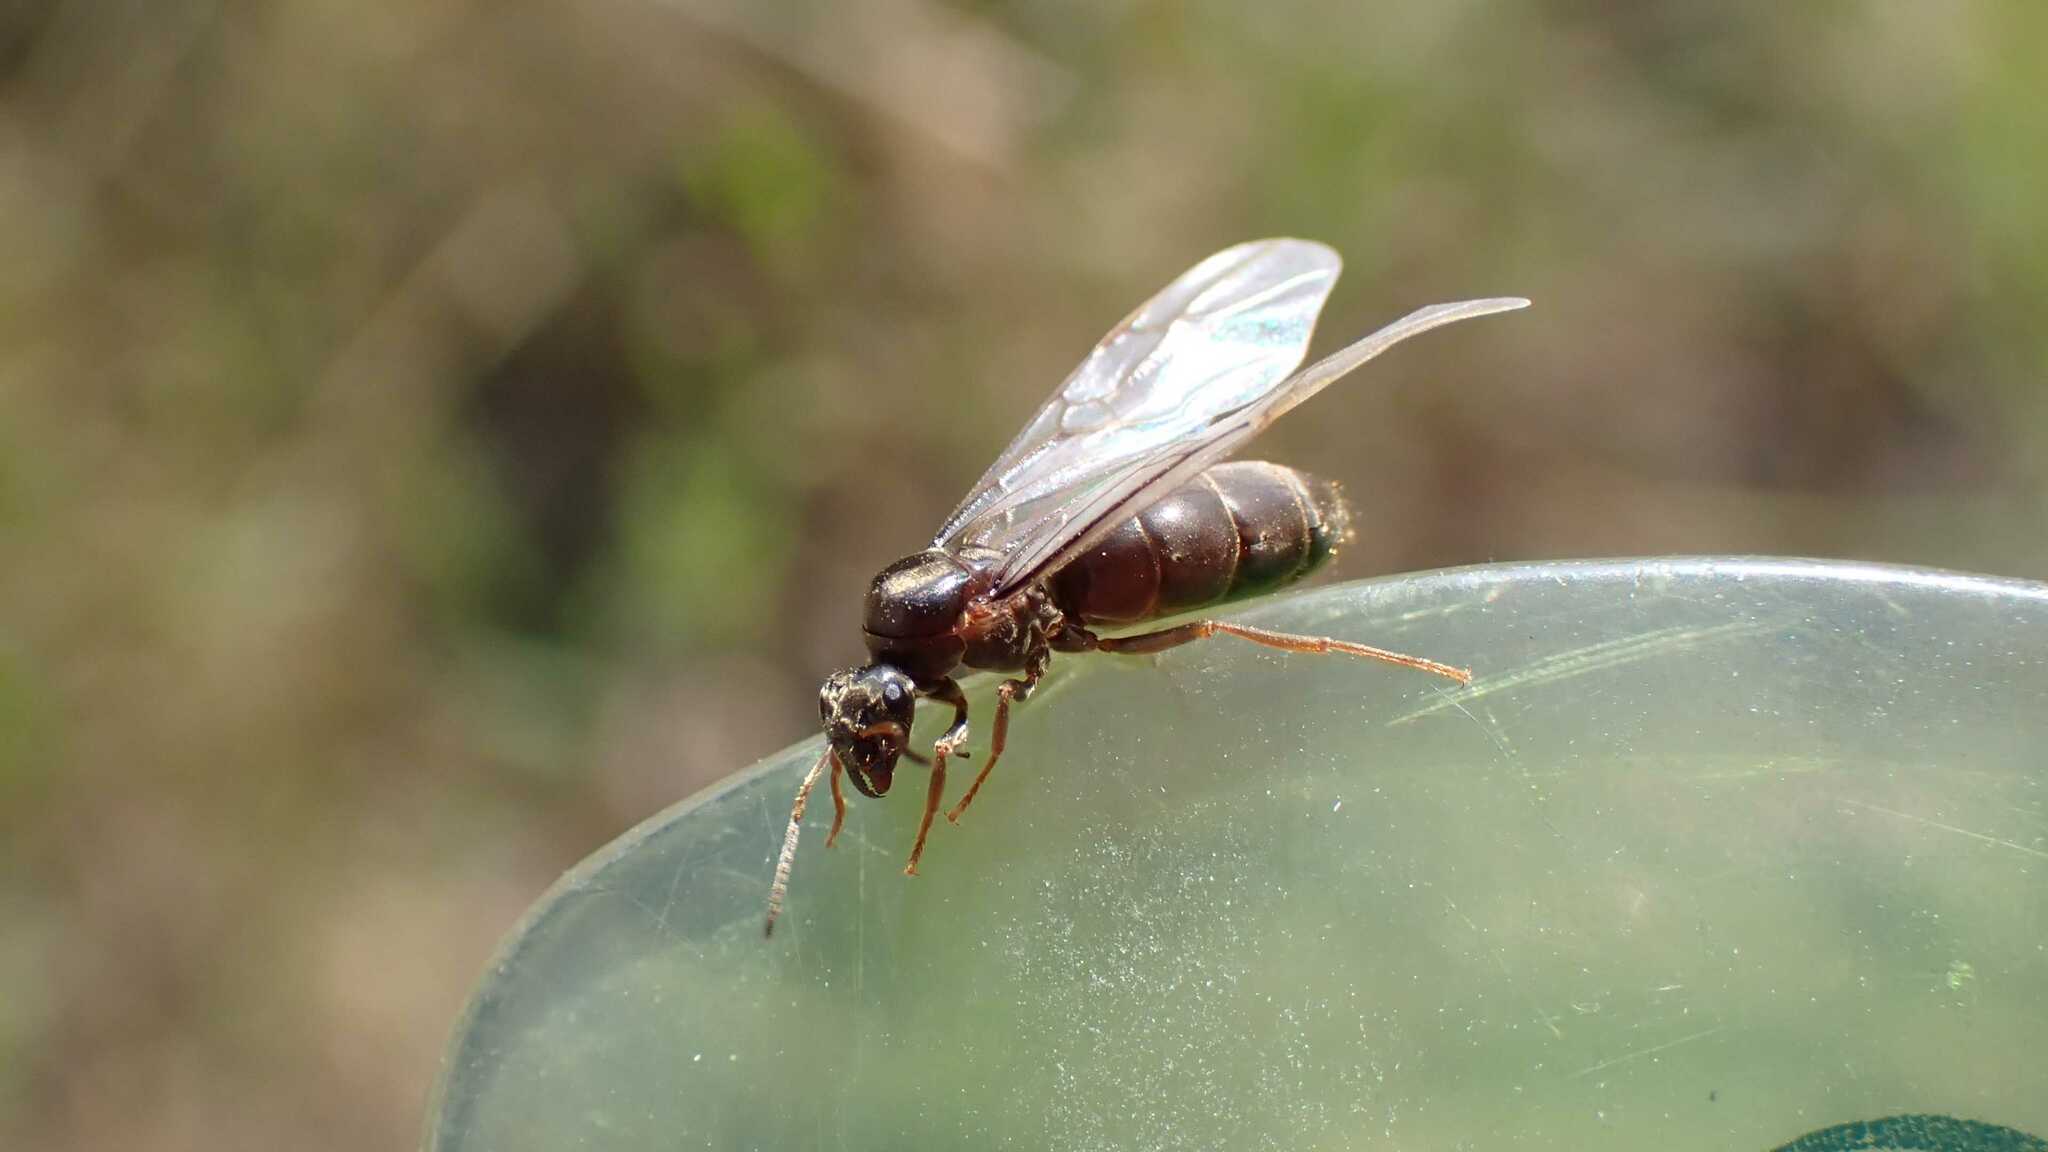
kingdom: Animalia
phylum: Arthropoda
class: Insecta
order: Hymenoptera
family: Formicidae
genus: Lasius
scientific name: Lasius
